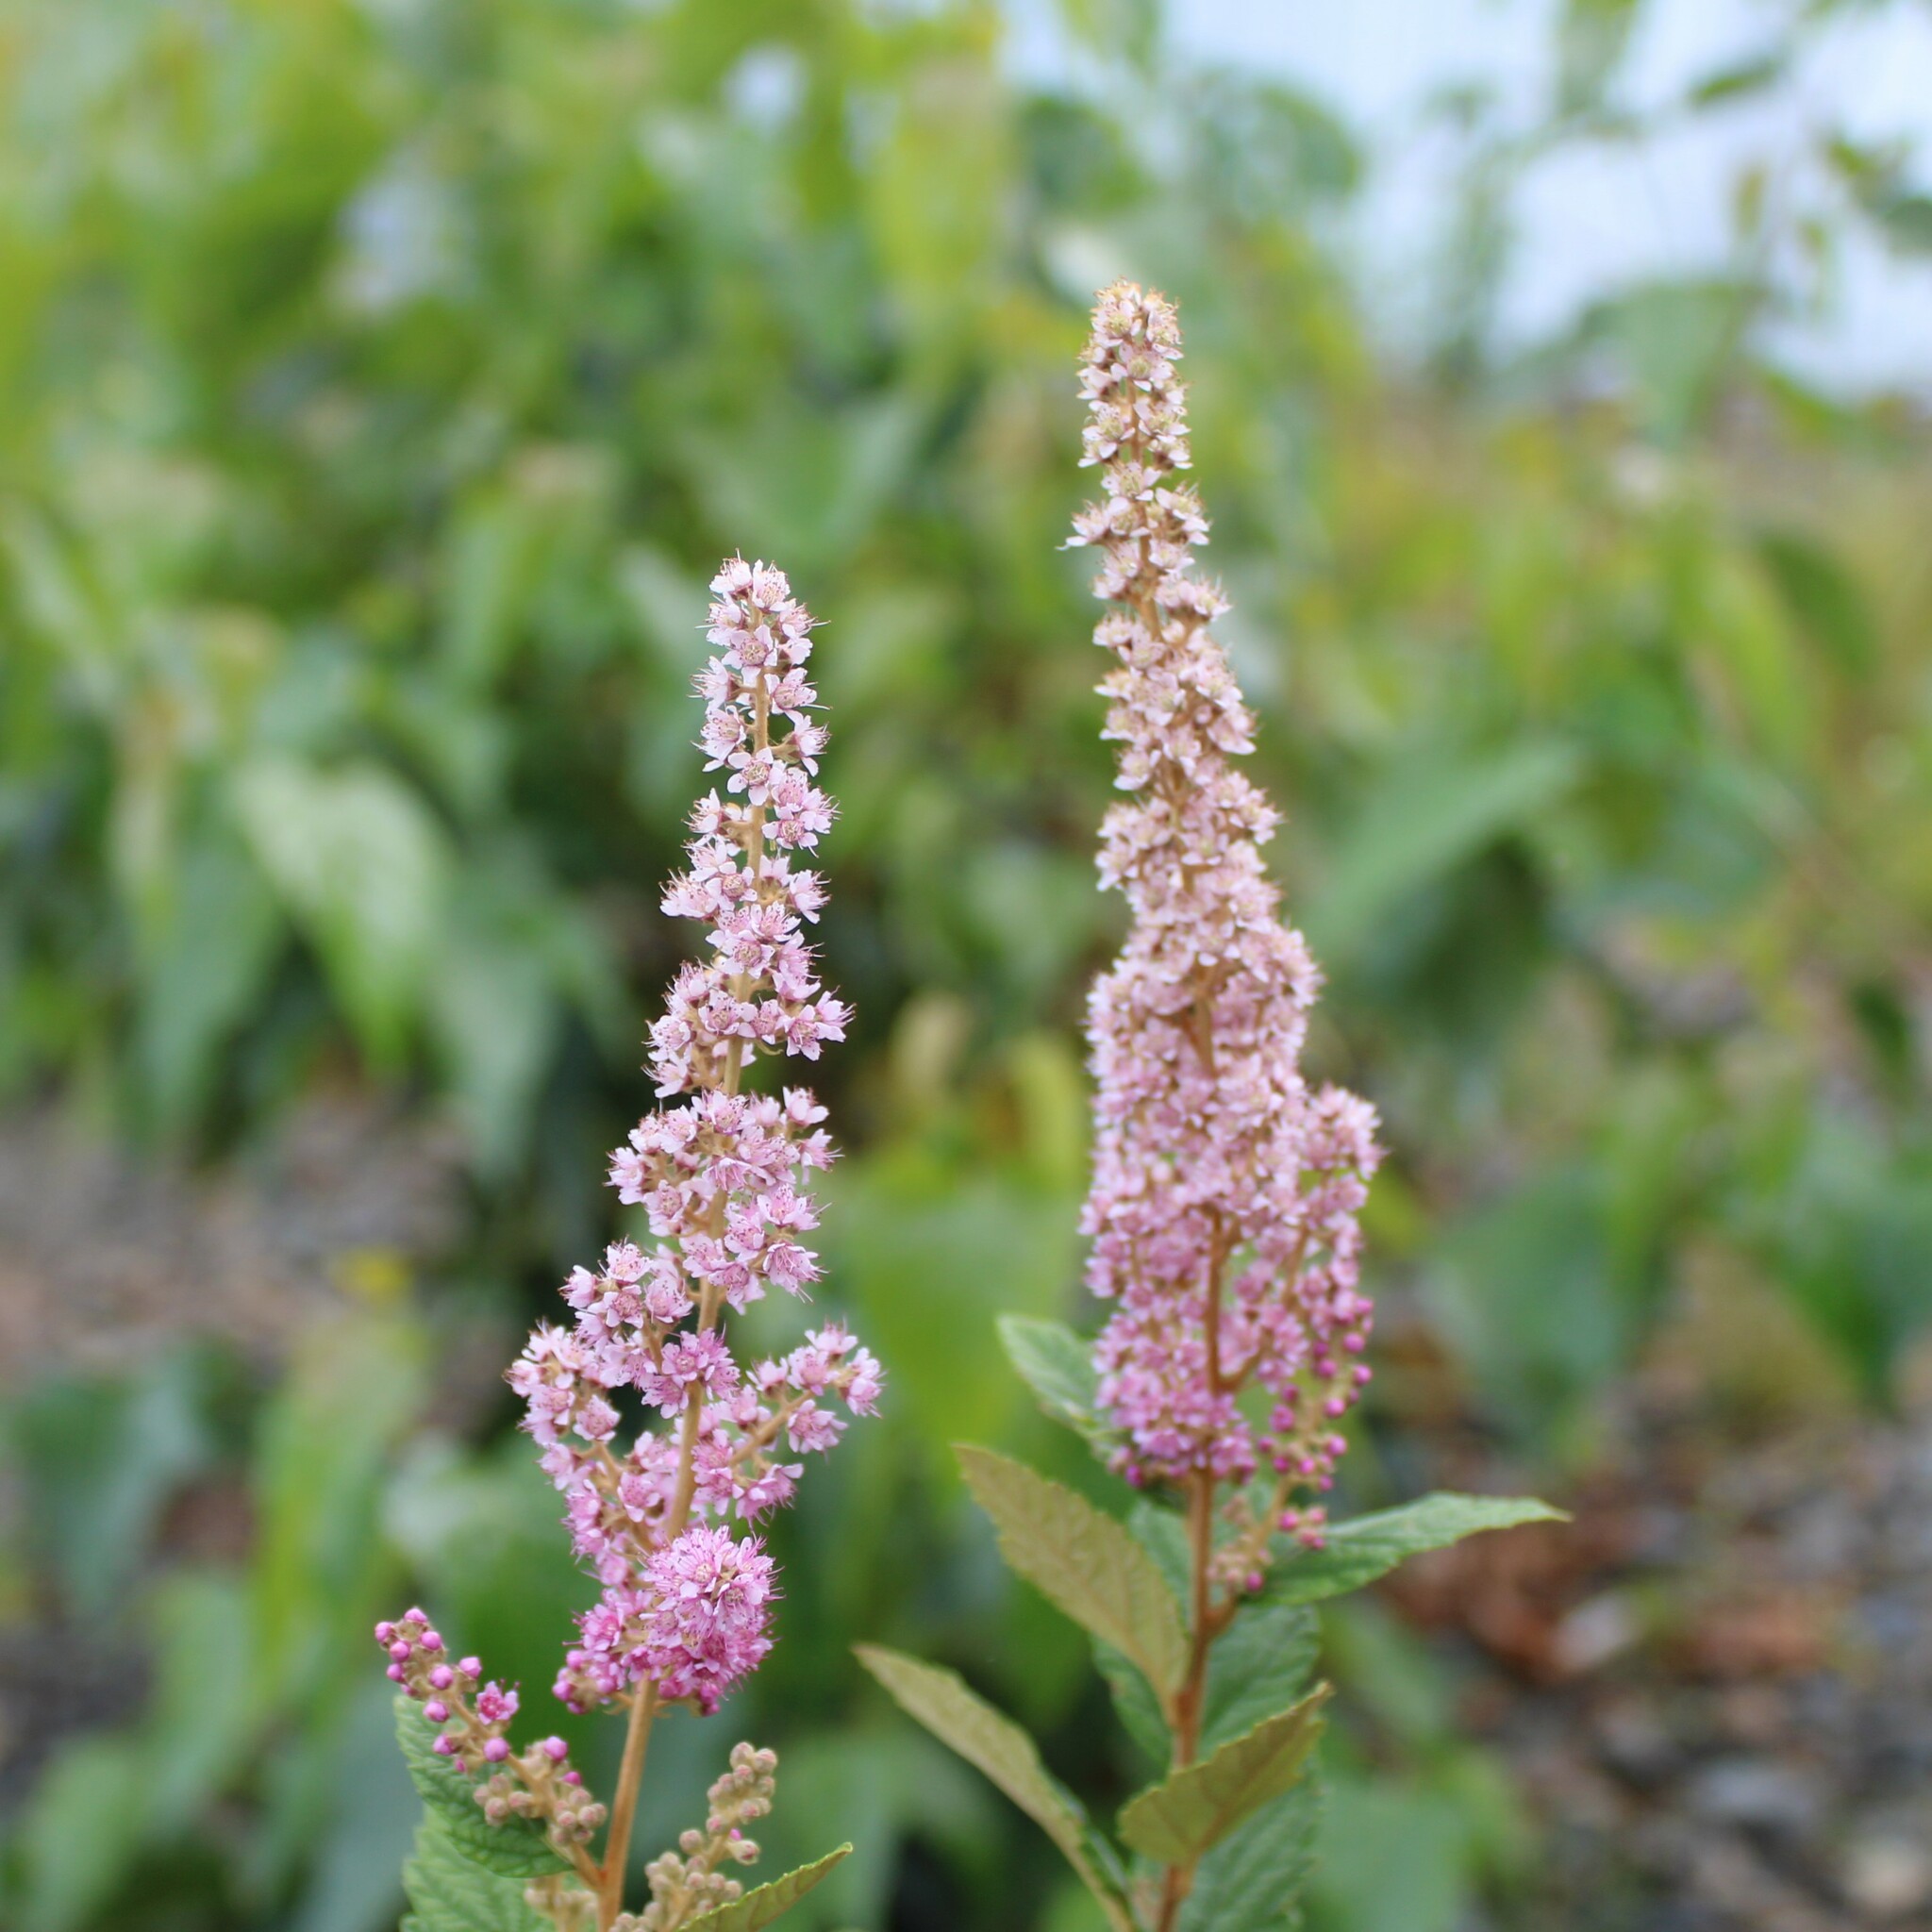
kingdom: Plantae
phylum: Tracheophyta
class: Magnoliopsida
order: Rosales
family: Rosaceae
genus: Spiraea
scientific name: Spiraea tomentosa
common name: Hardhack
